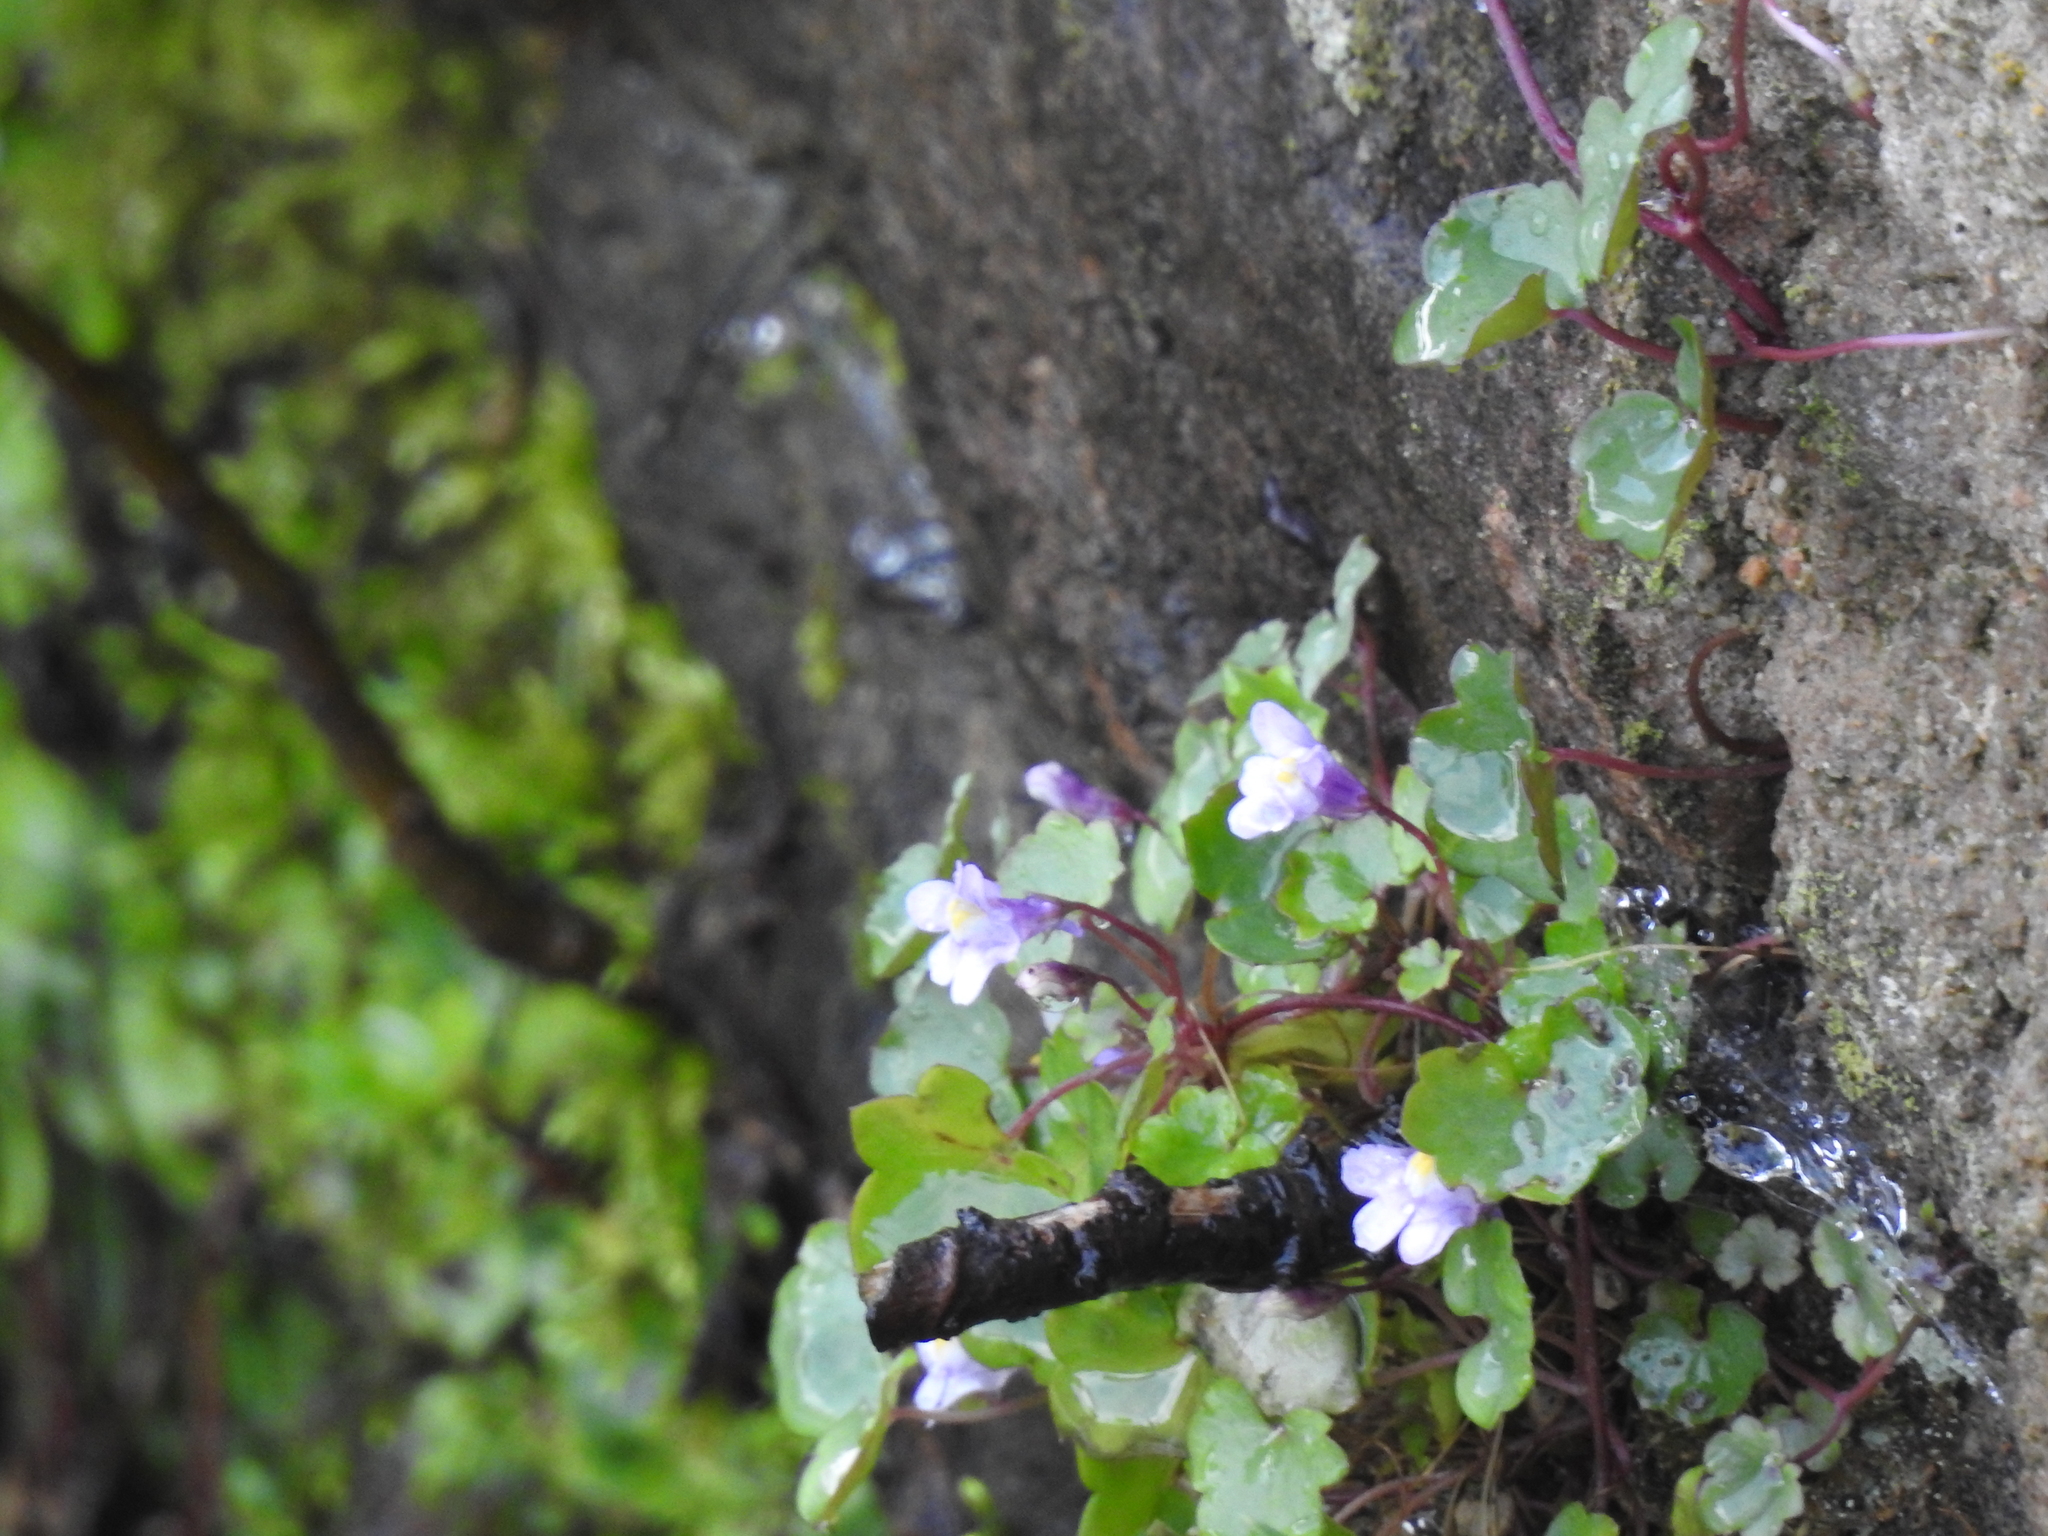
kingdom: Plantae
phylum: Tracheophyta
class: Magnoliopsida
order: Lamiales
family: Plantaginaceae
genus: Cymbalaria
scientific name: Cymbalaria muralis
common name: Ivy-leaved toadflax
